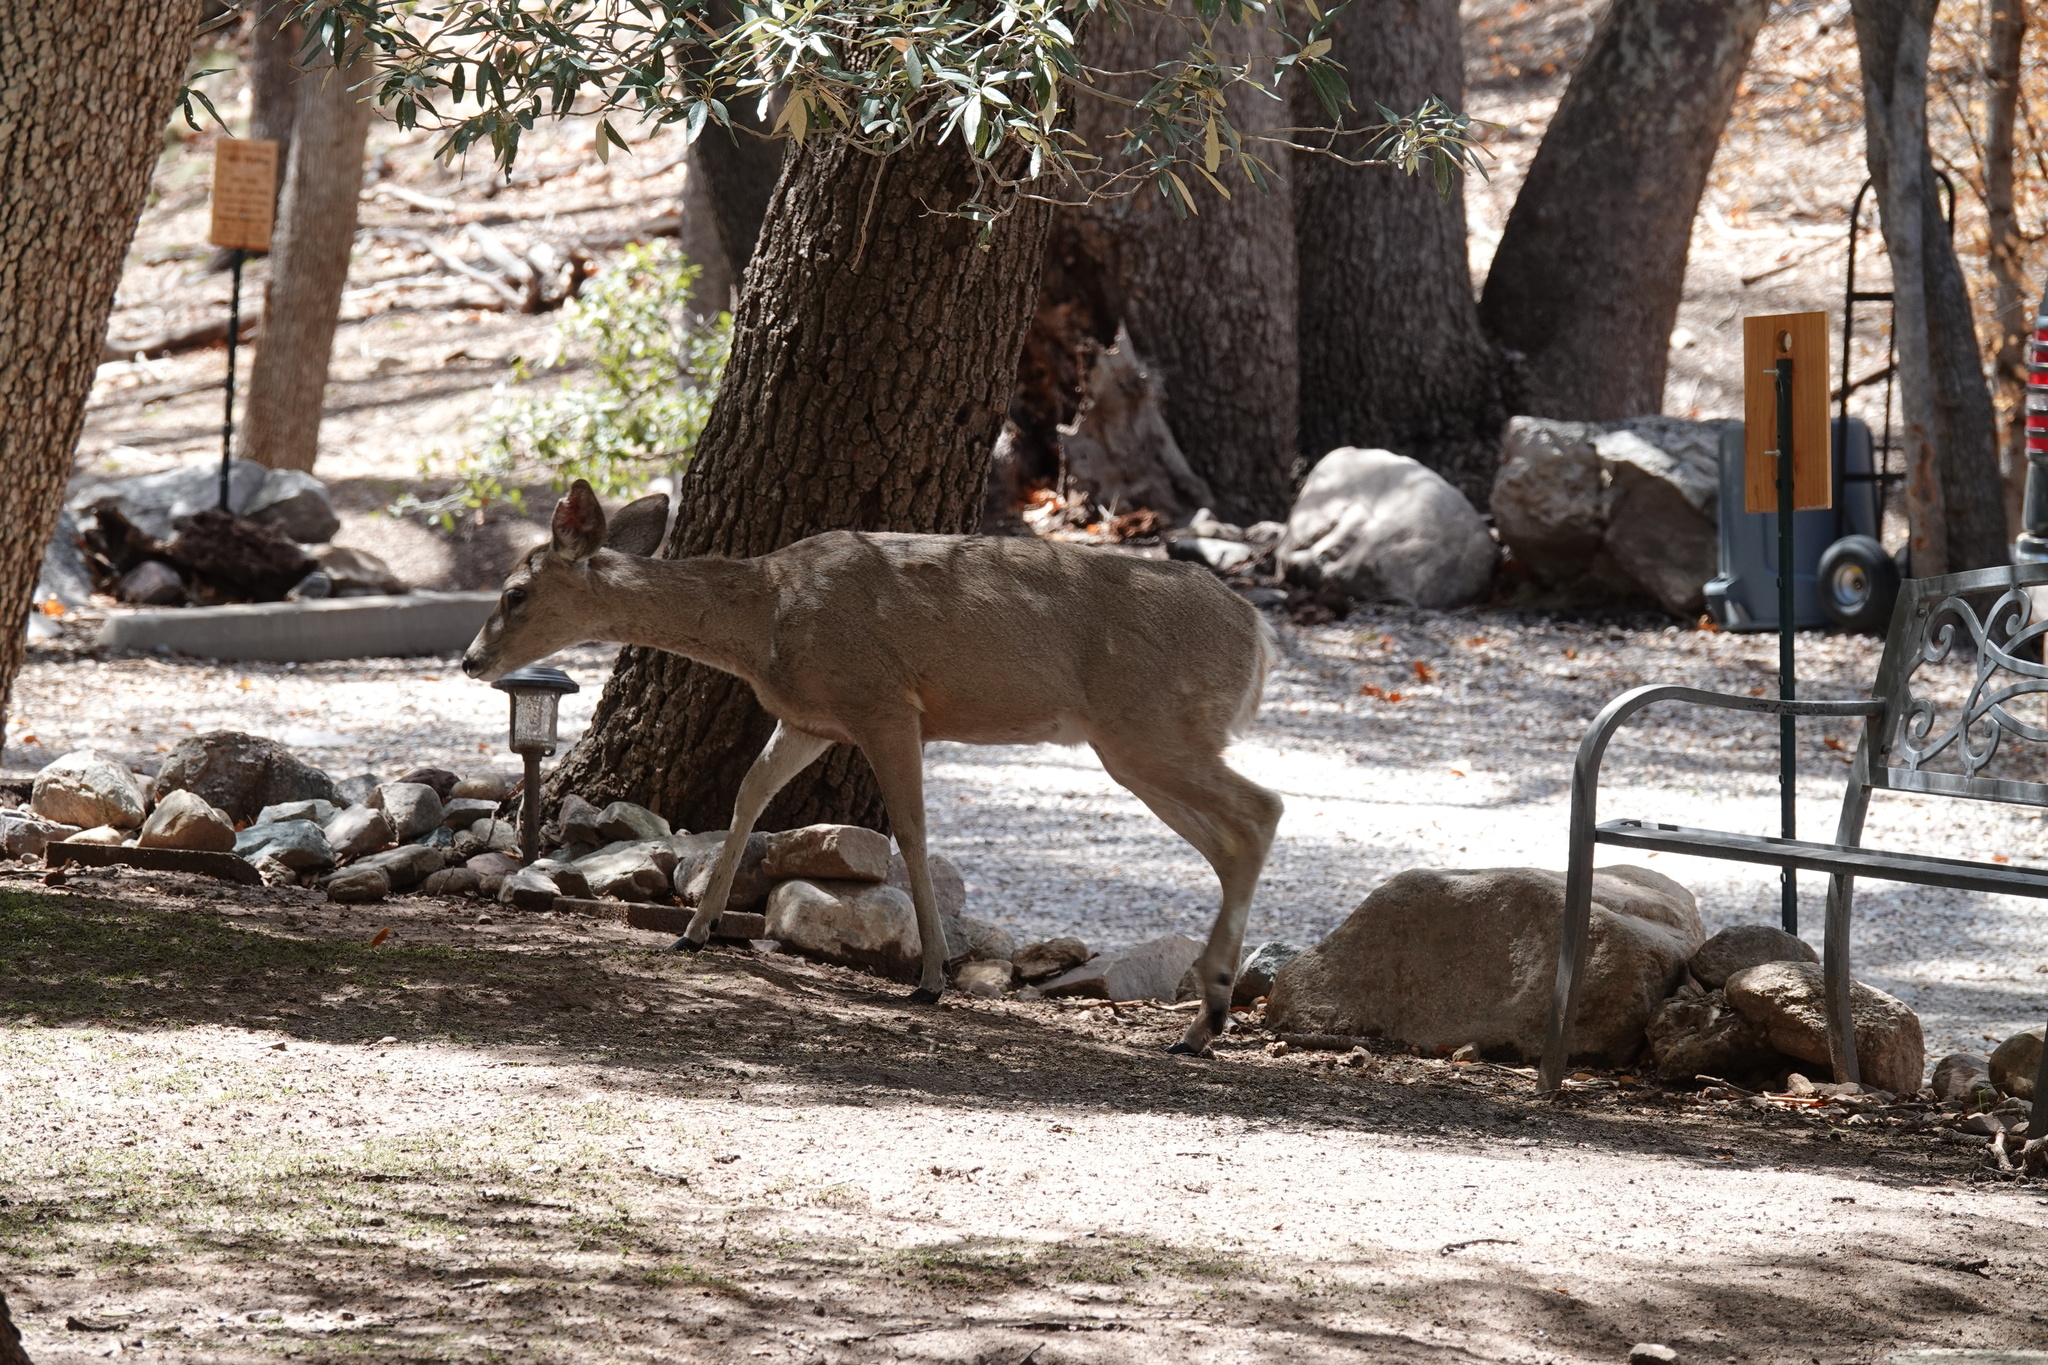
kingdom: Animalia
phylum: Chordata
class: Mammalia
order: Artiodactyla
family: Cervidae
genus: Odocoileus
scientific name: Odocoileus virginianus
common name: White-tailed deer
